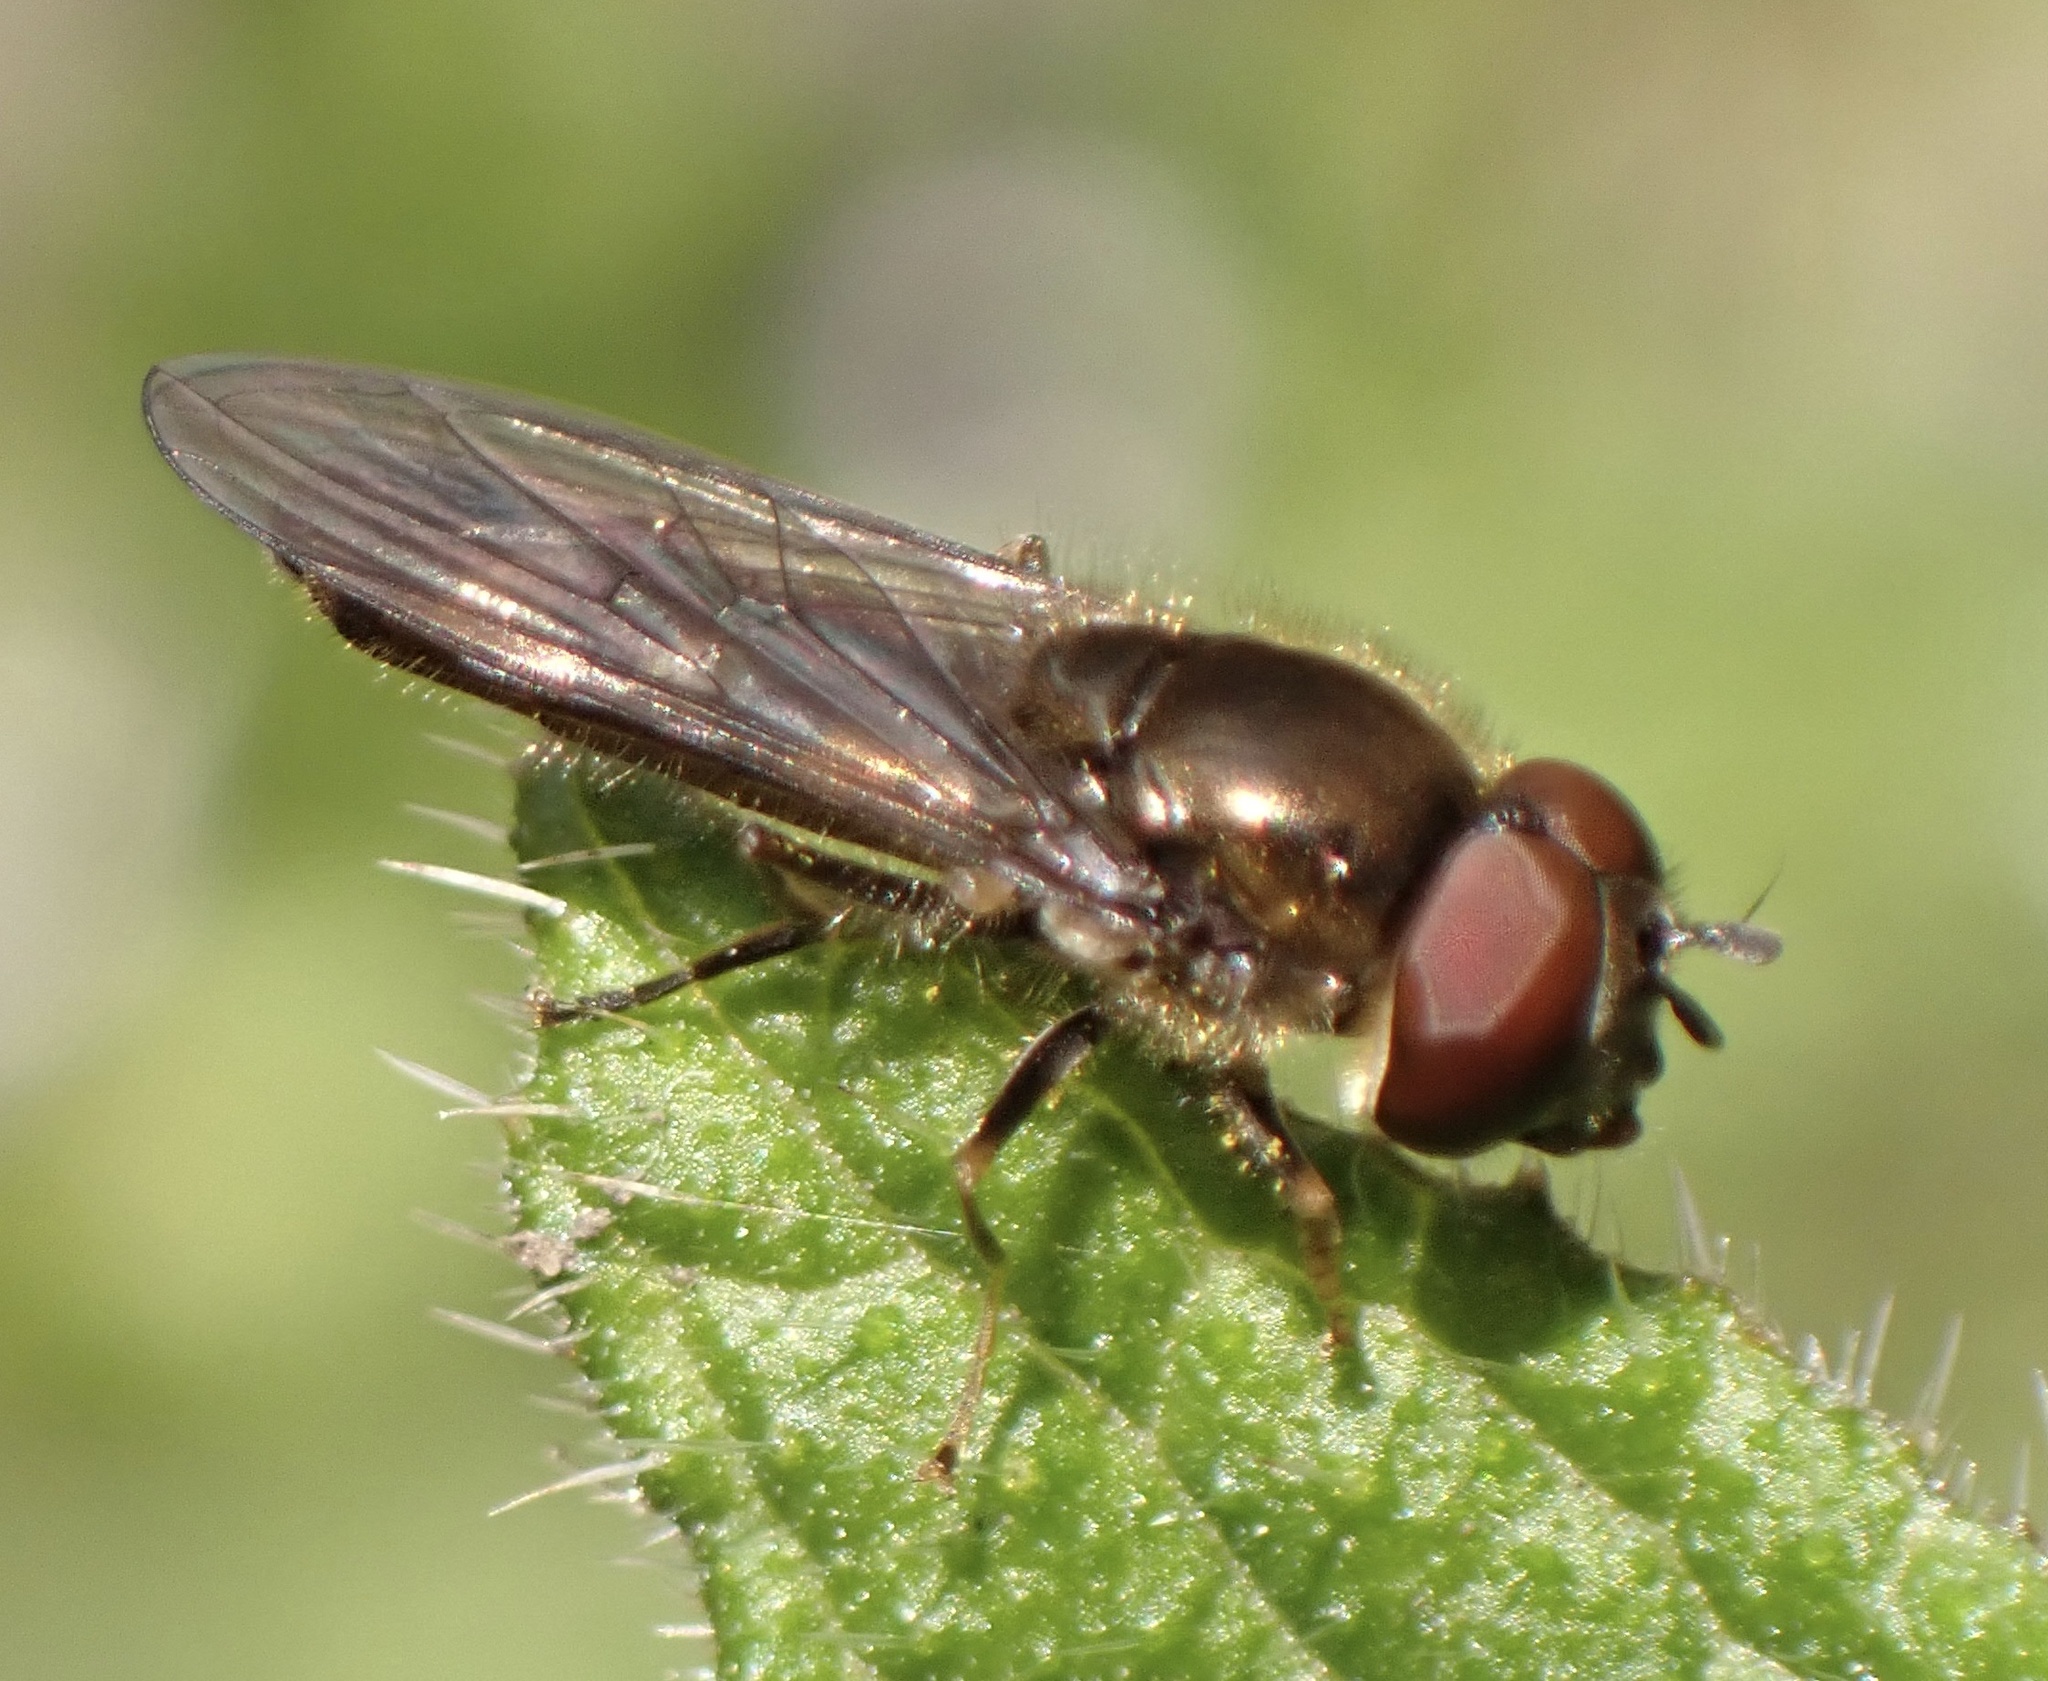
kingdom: Animalia
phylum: Arthropoda
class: Insecta
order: Diptera
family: Syrphidae
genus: Platycheirus
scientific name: Platycheirus albimanus
